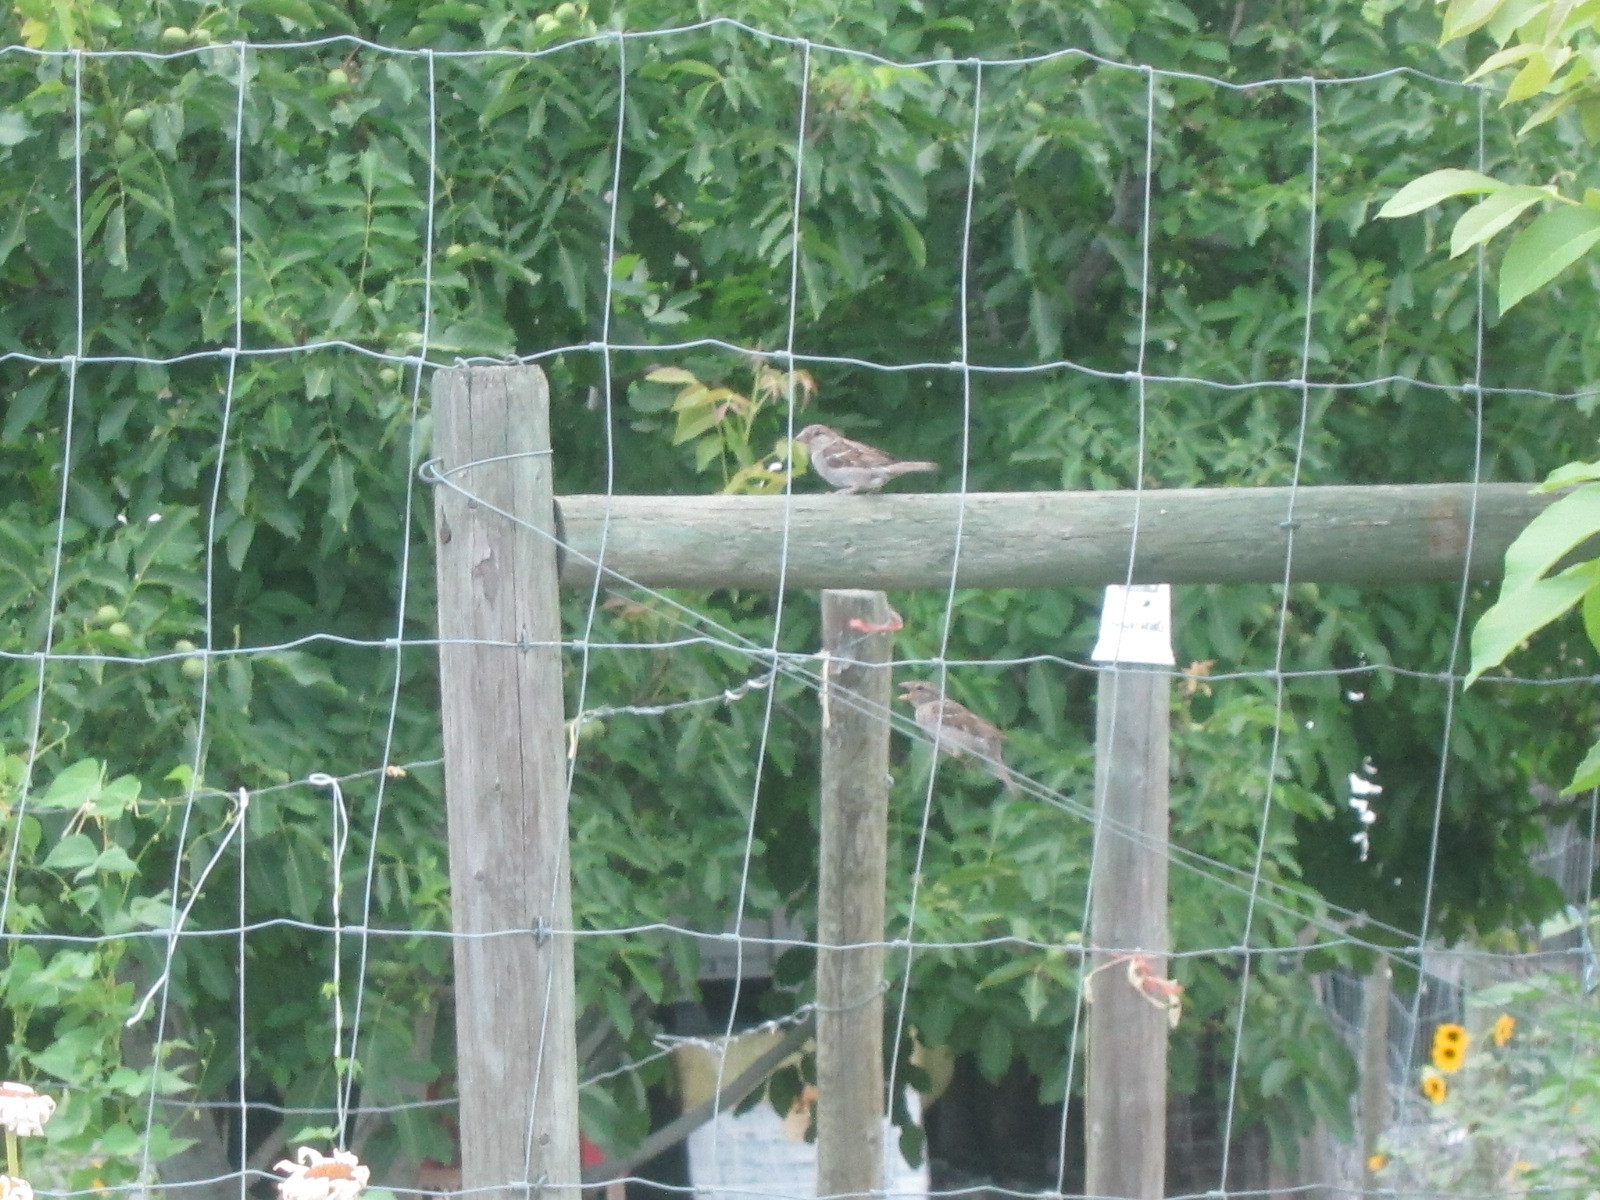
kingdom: Animalia
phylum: Chordata
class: Aves
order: Passeriformes
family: Passeridae
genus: Passer
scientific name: Passer domesticus
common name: House sparrow
